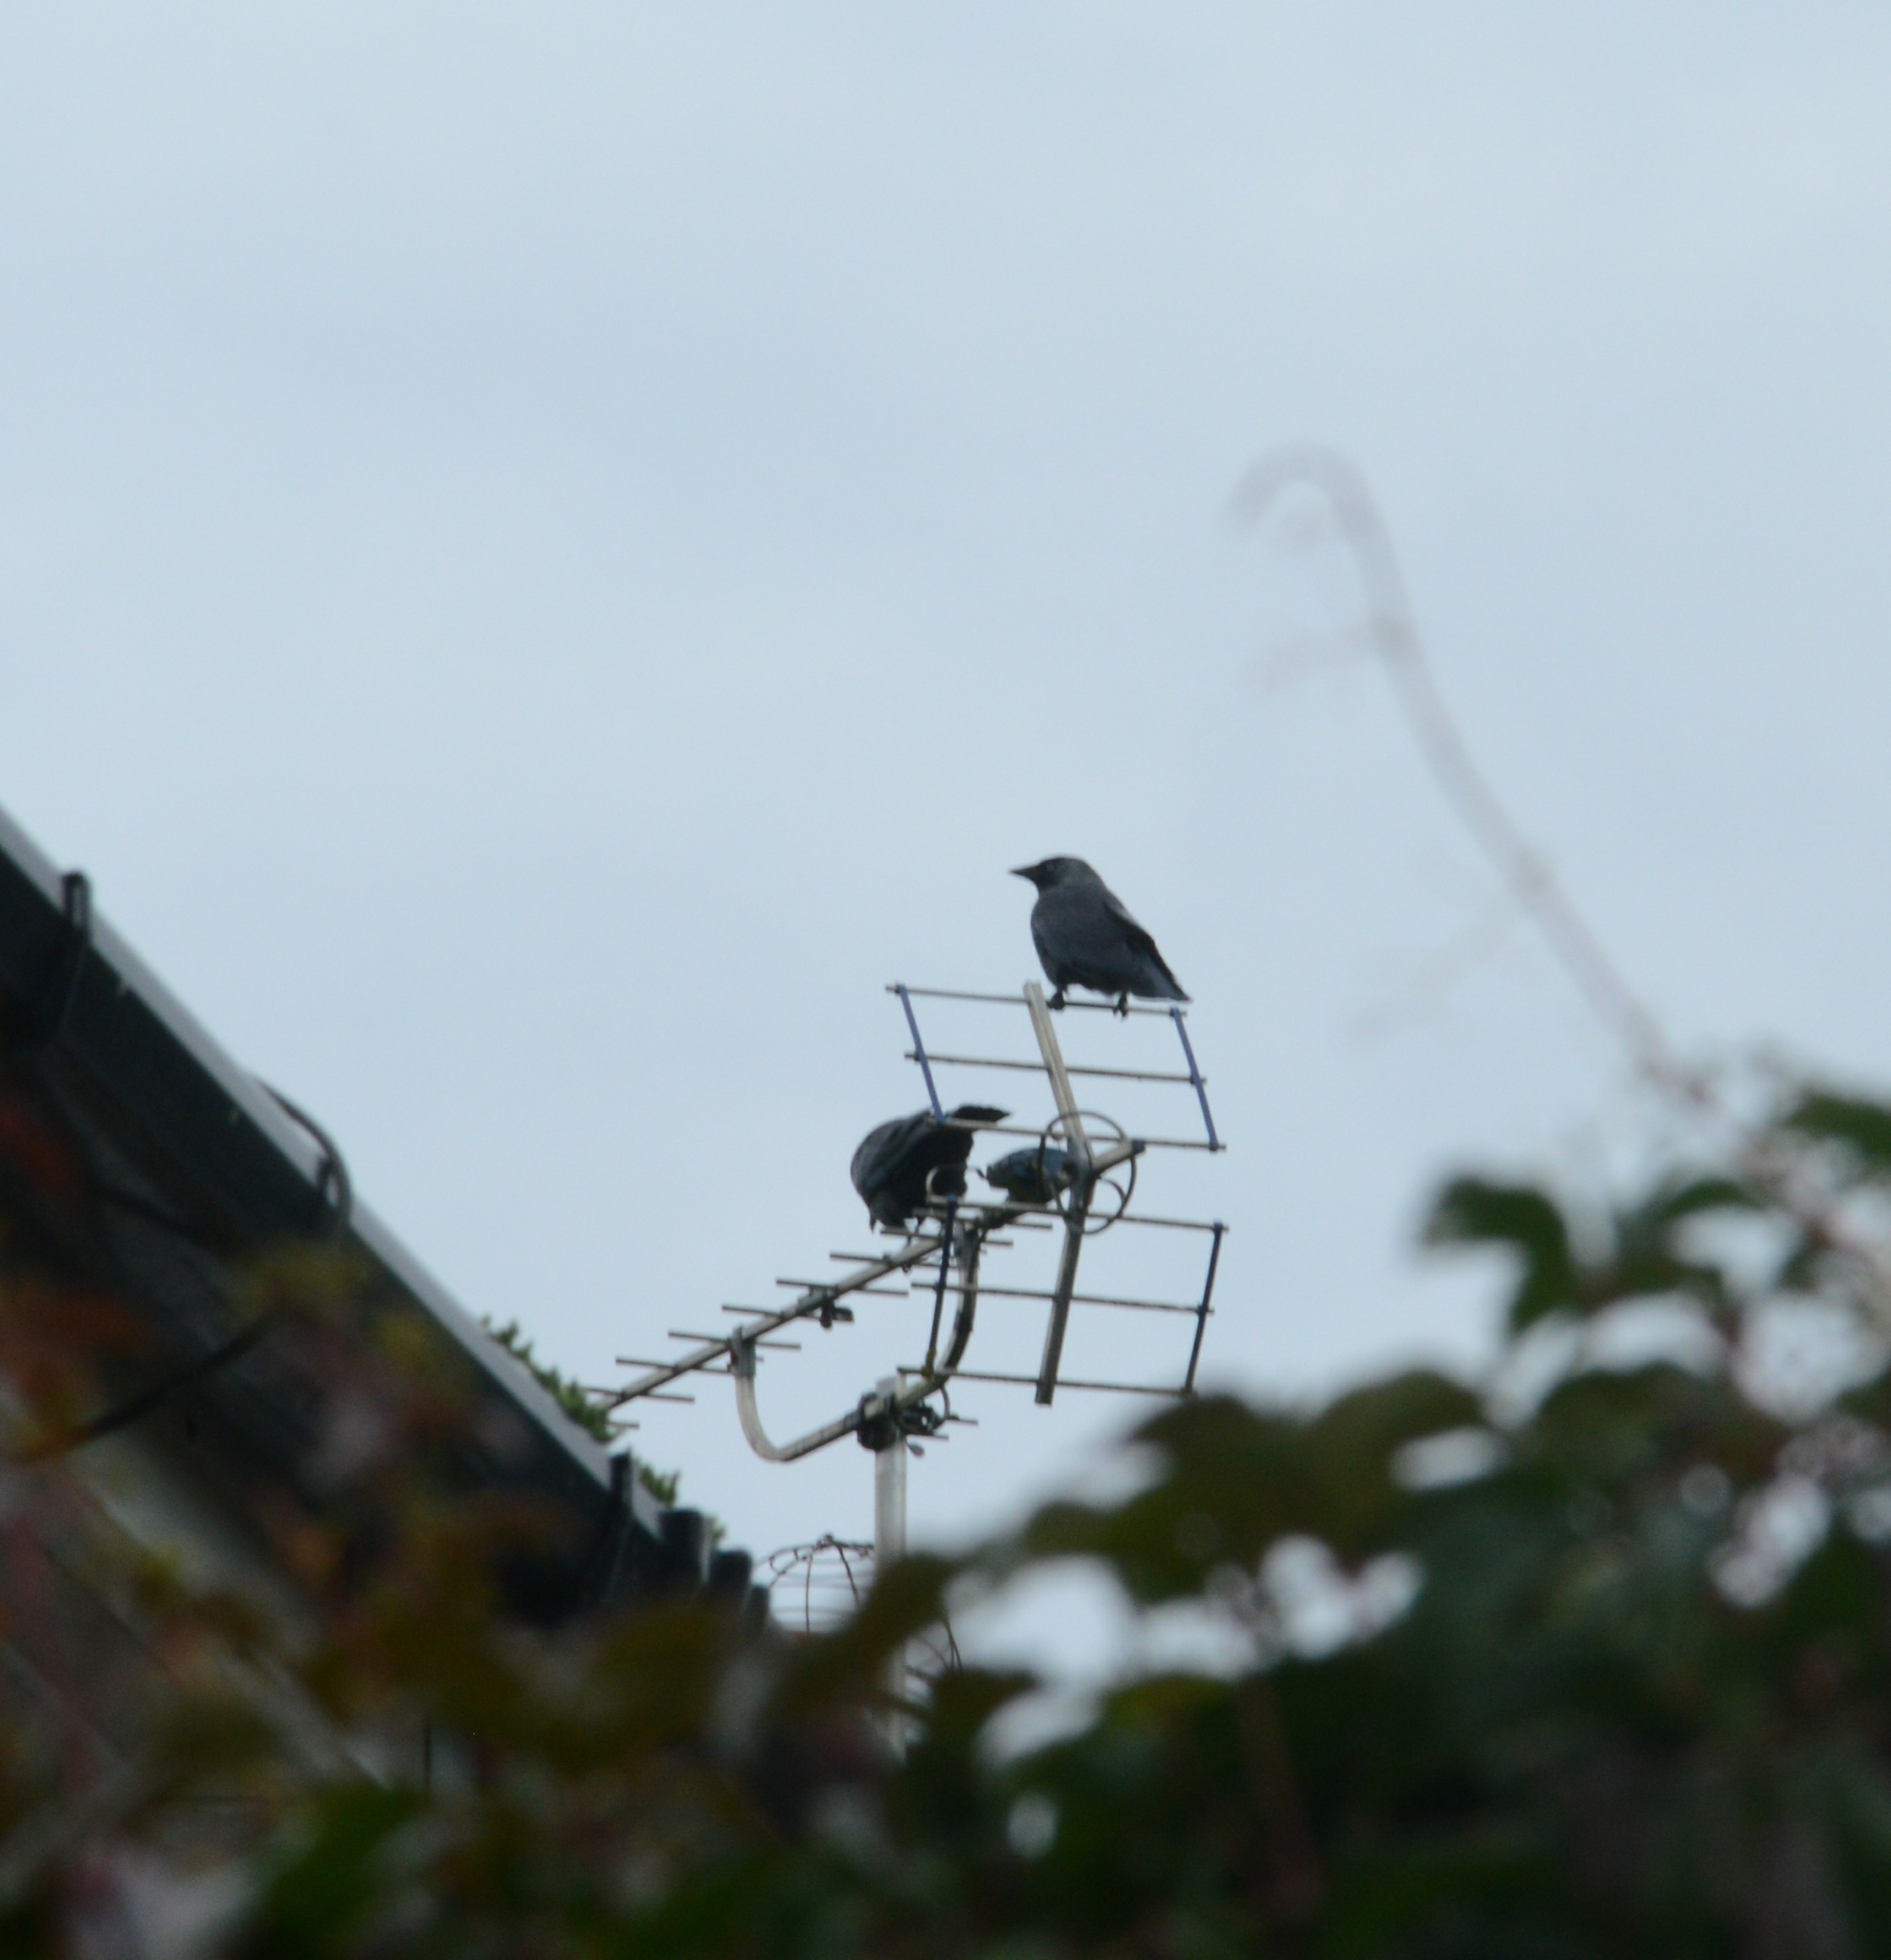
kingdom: Animalia
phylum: Chordata
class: Aves
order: Passeriformes
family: Corvidae
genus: Coloeus
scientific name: Coloeus monedula
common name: Western jackdaw
